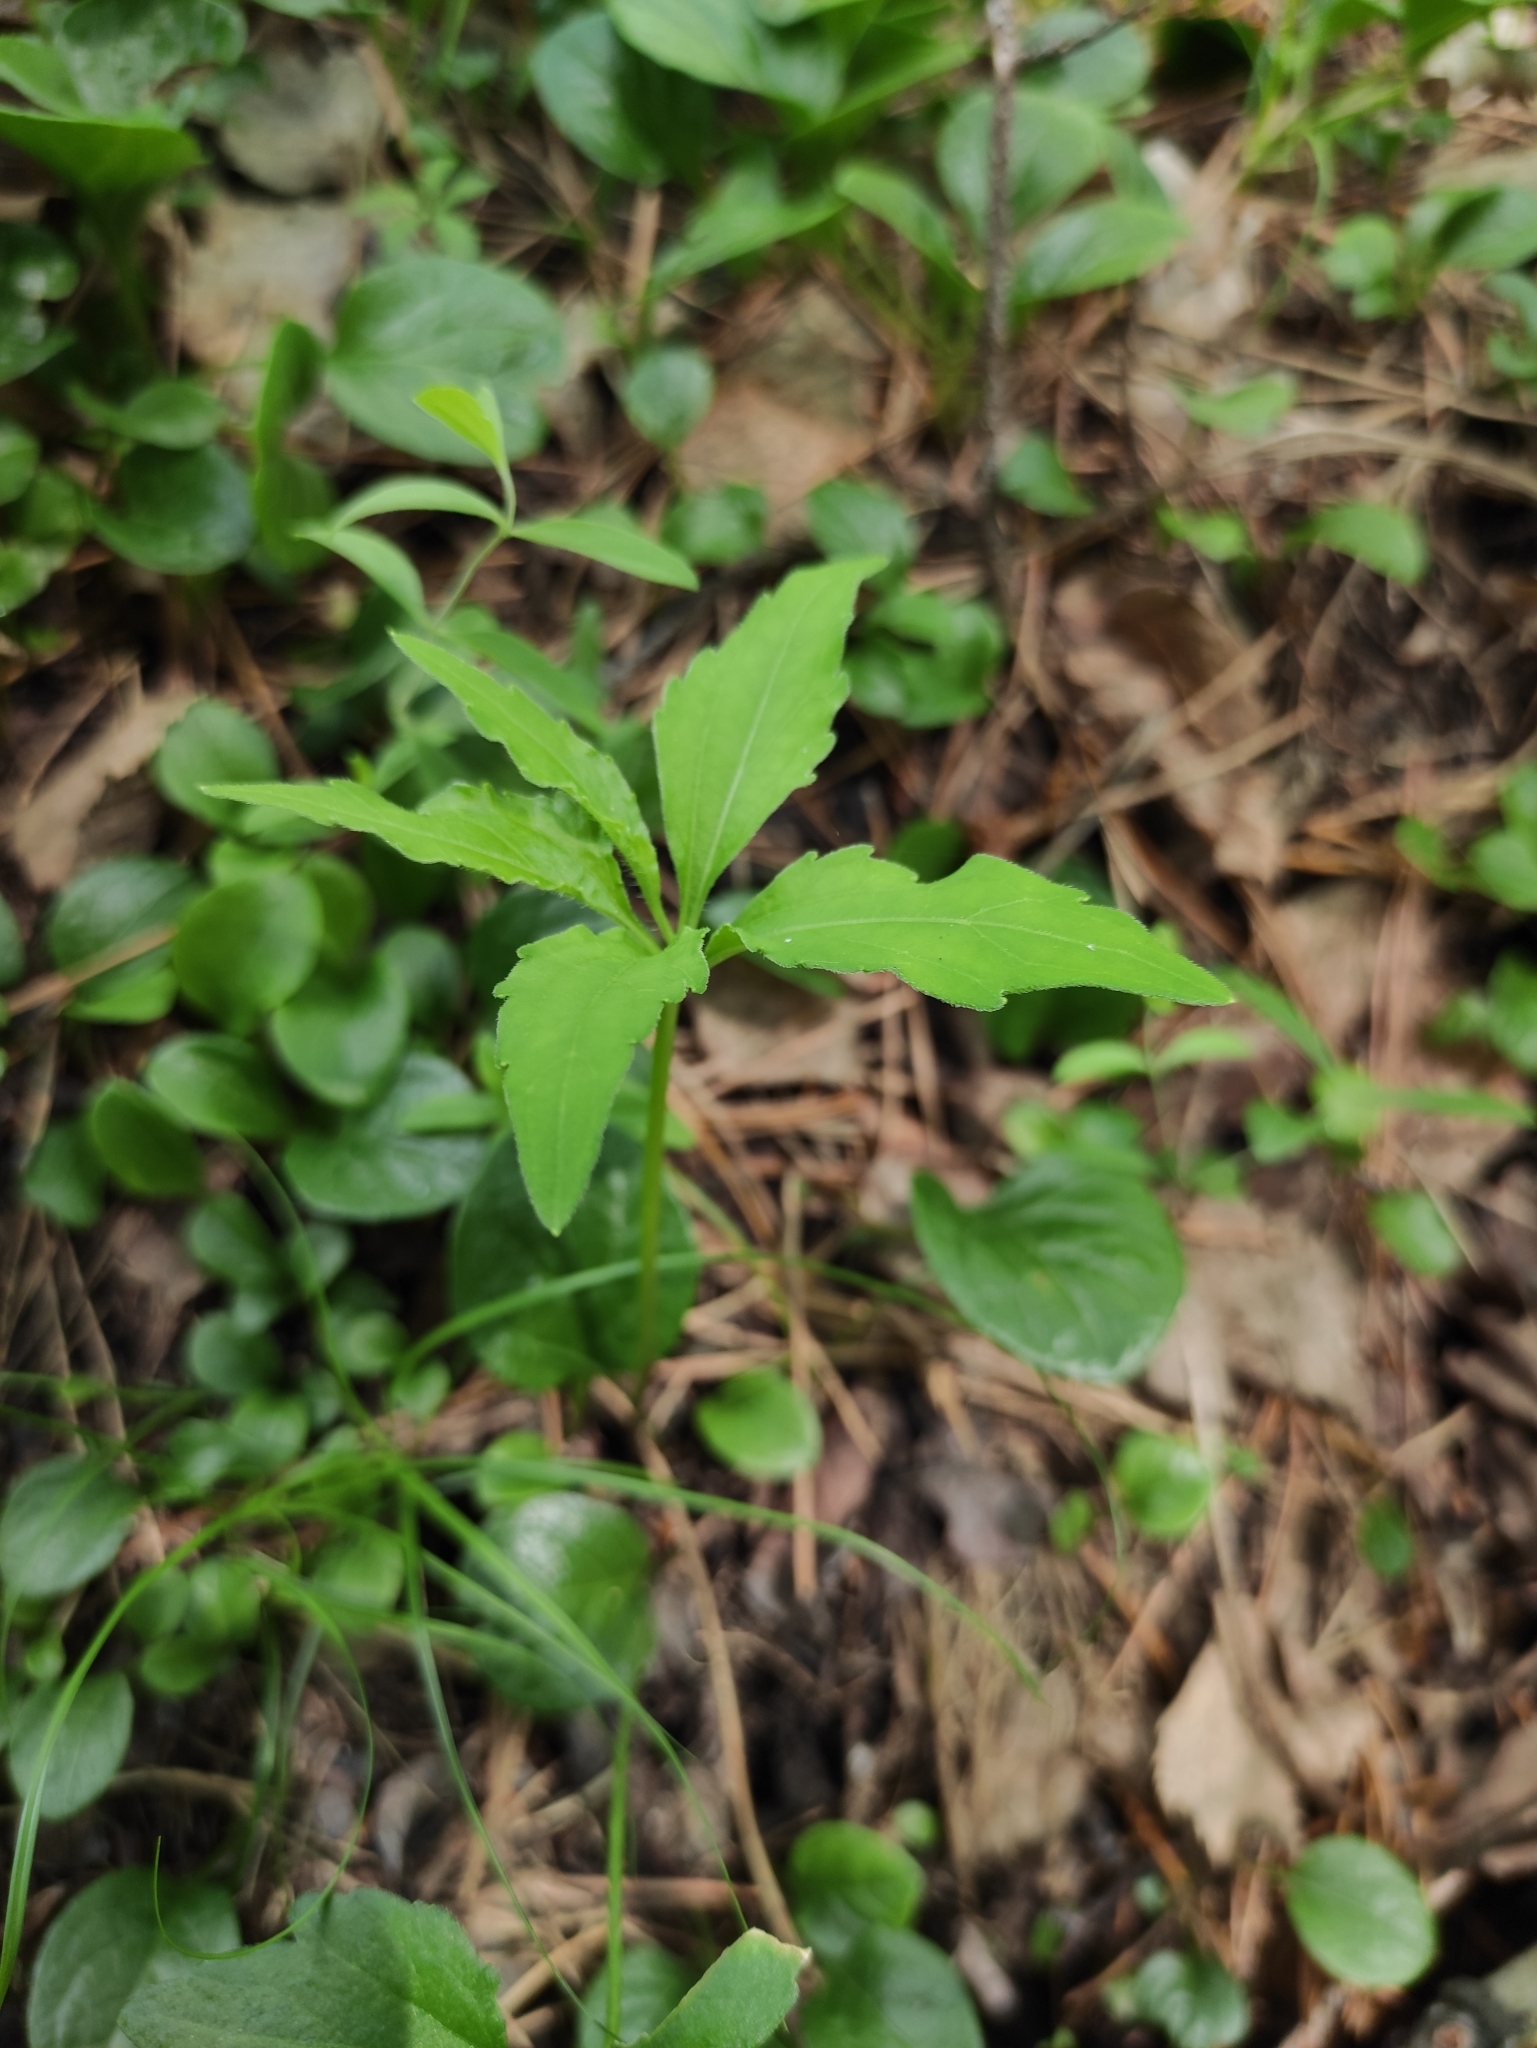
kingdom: Plantae
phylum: Tracheophyta
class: Magnoliopsida
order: Malpighiales
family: Violaceae
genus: Viola
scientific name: Viola dactyloides
